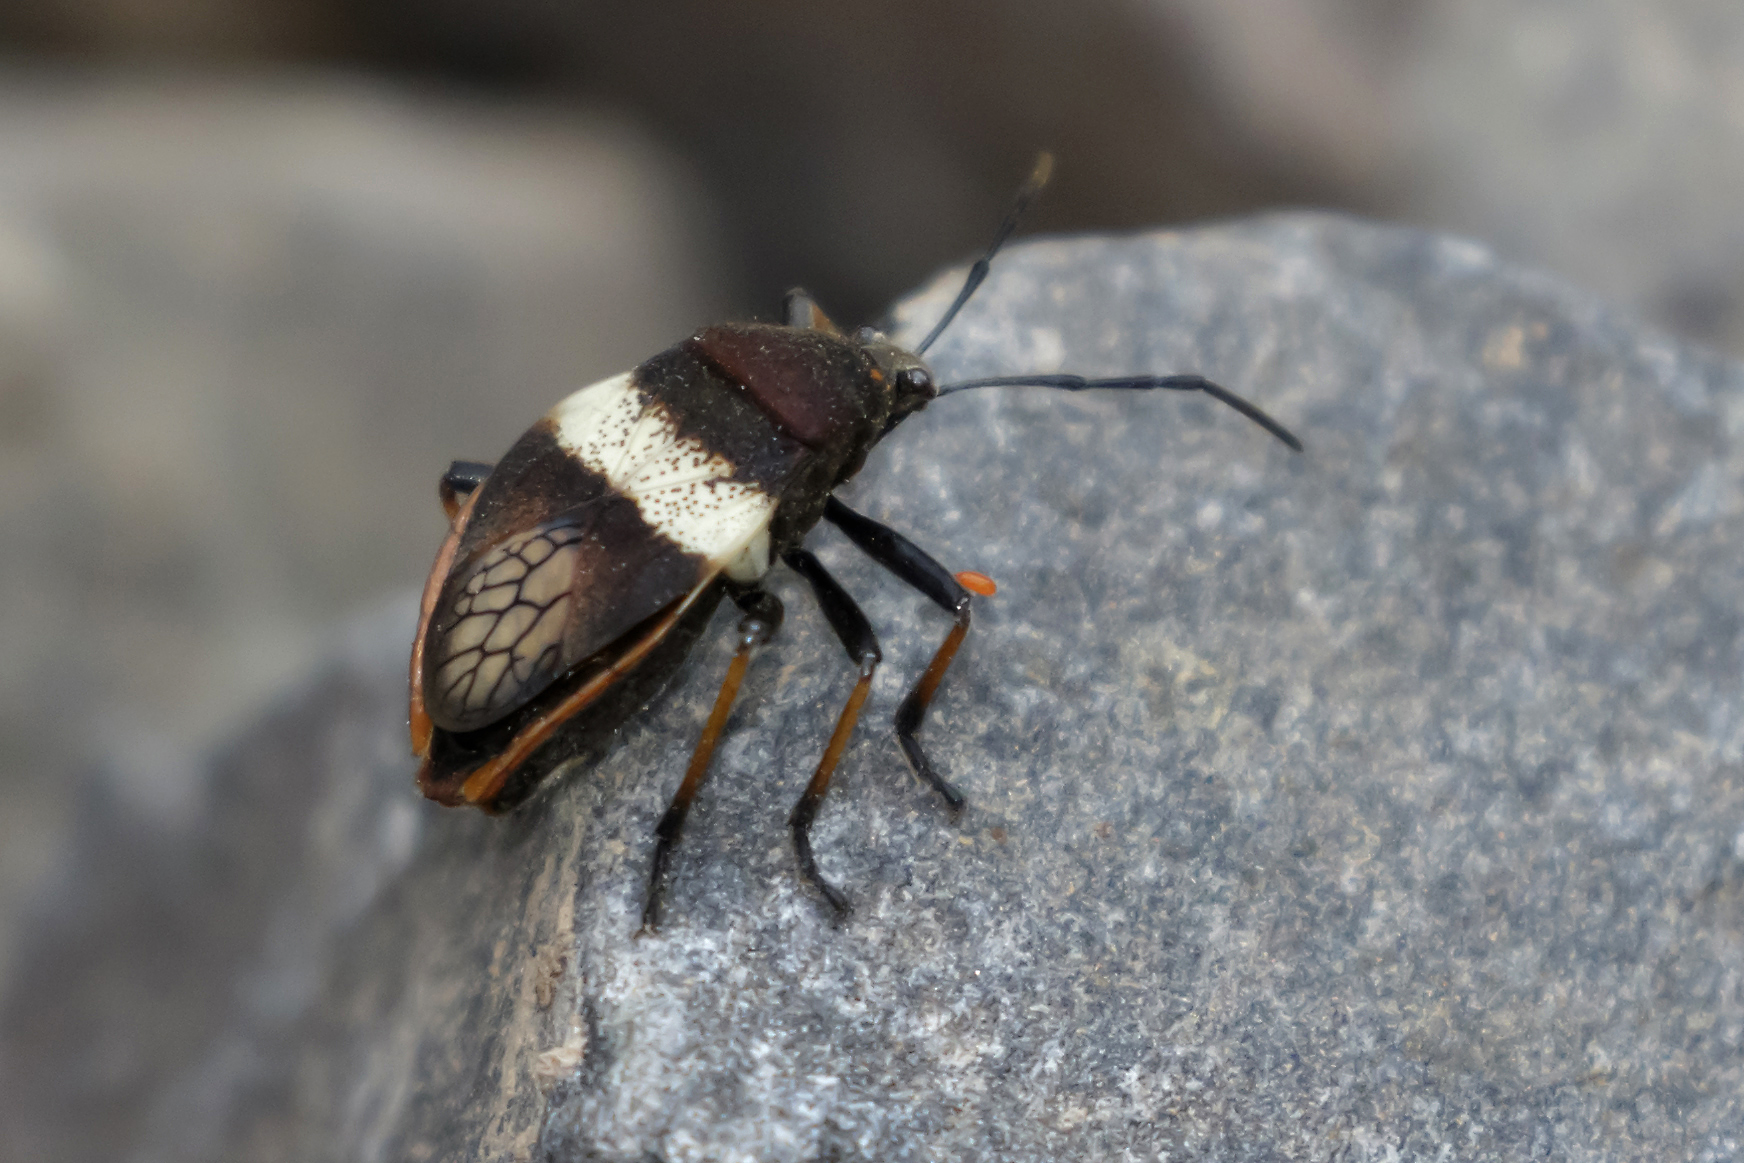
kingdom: Animalia
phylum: Arthropoda
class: Insecta
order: Hemiptera
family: Largidae
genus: Largus
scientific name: Largus balteatus
